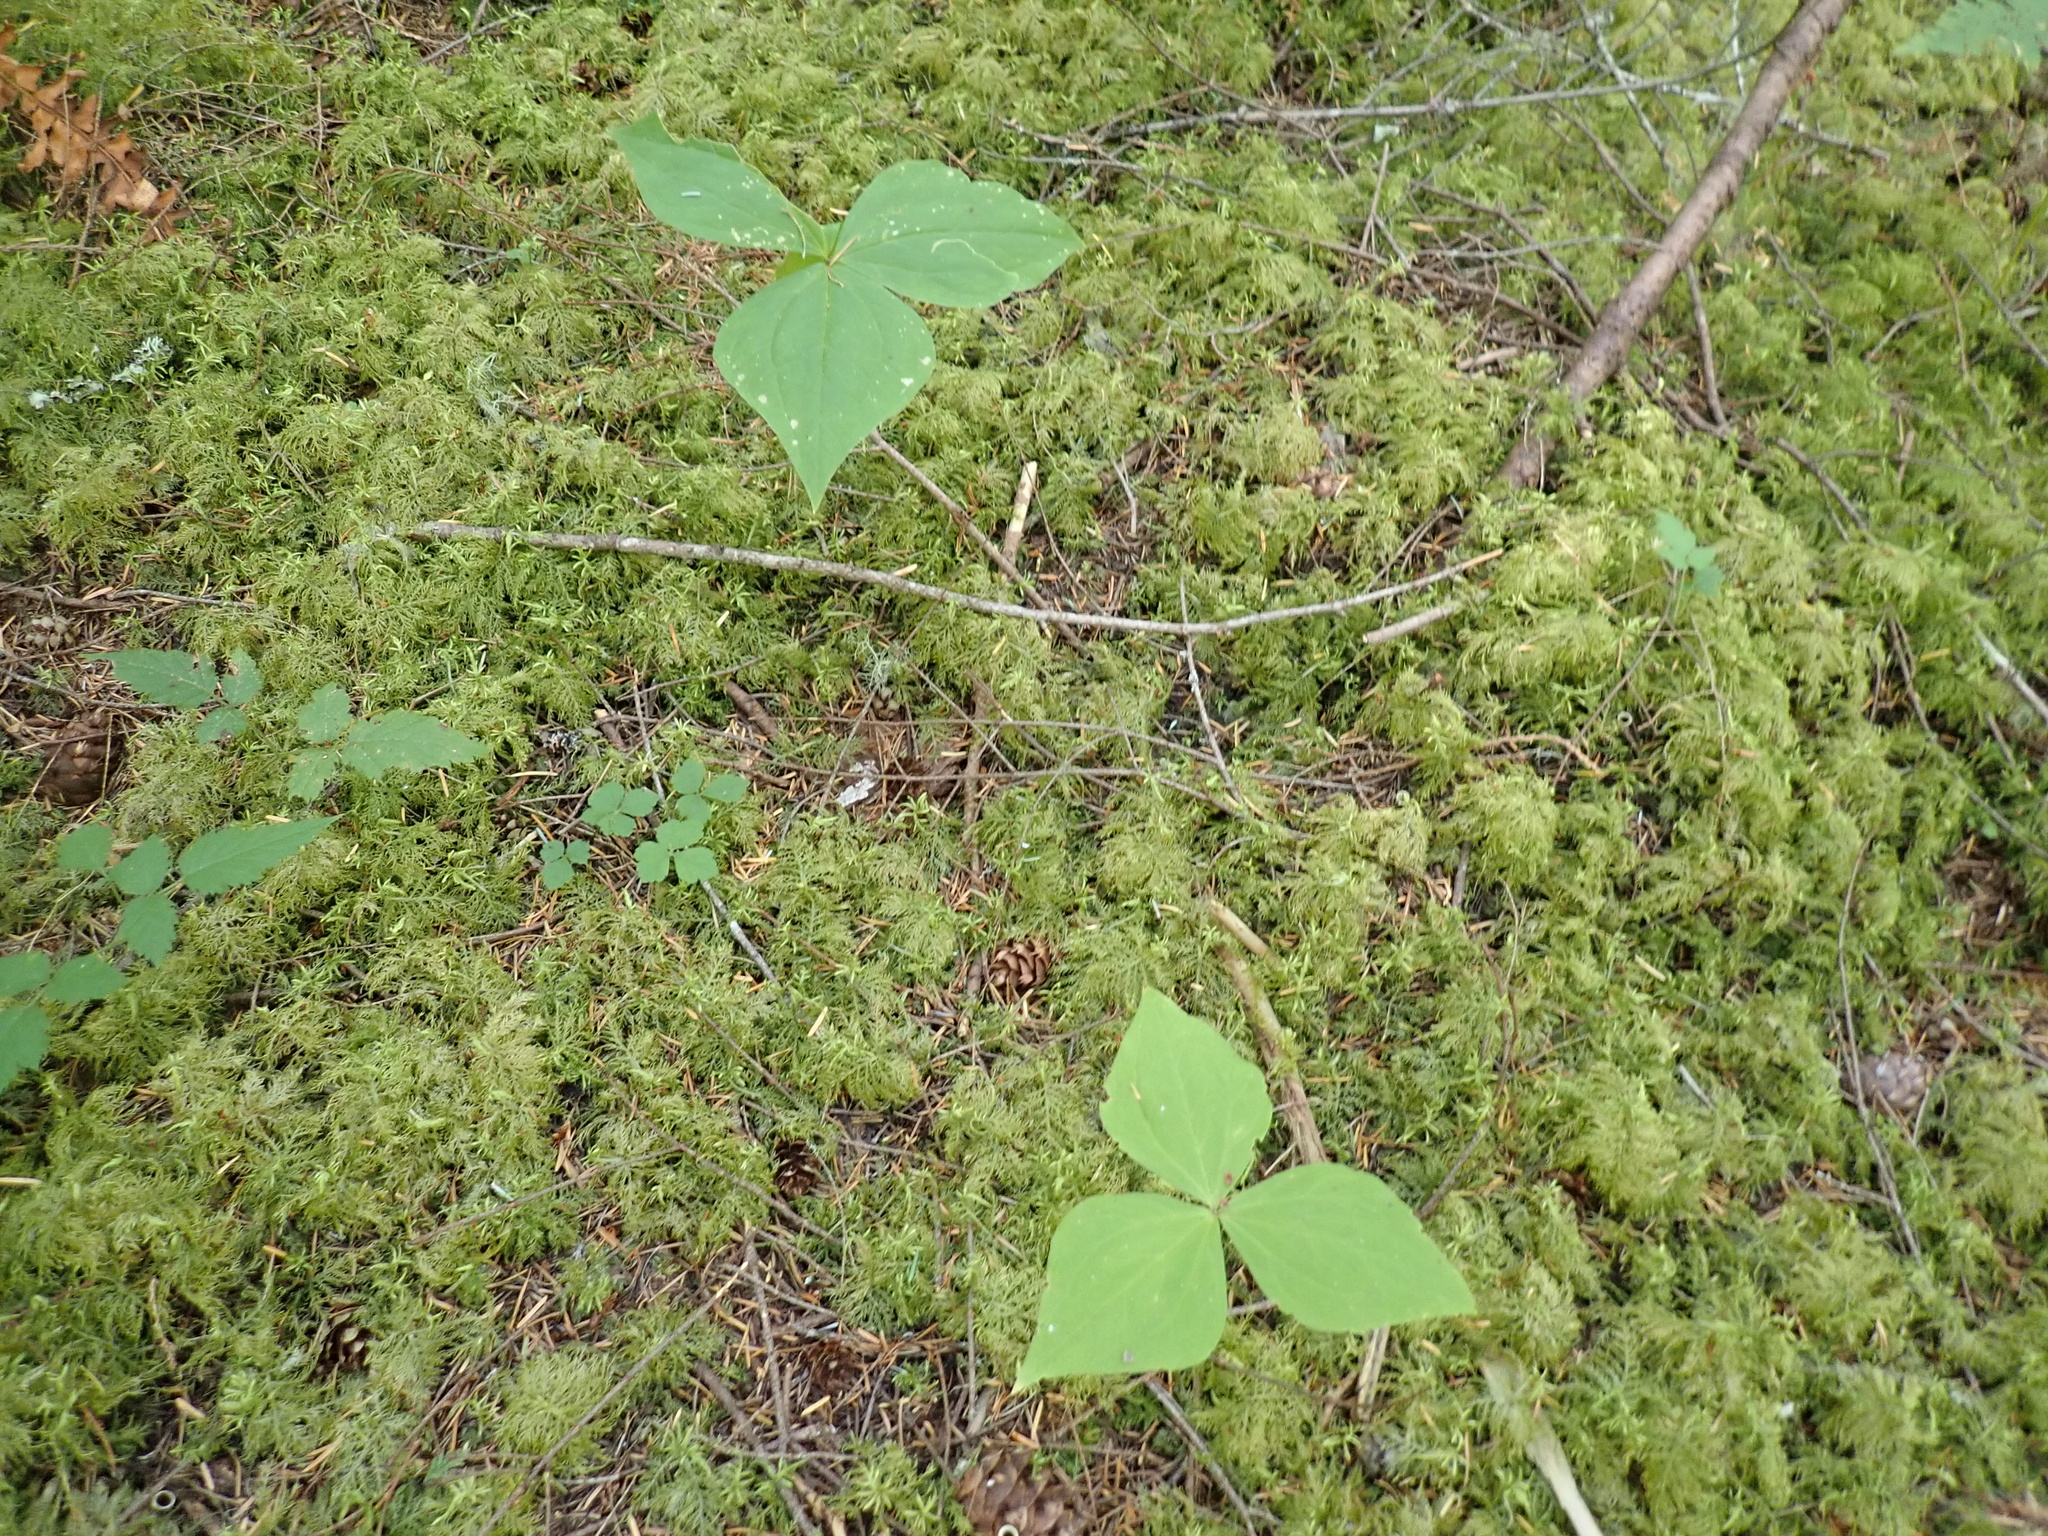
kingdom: Plantae
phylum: Tracheophyta
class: Liliopsida
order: Liliales
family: Melanthiaceae
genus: Trillium
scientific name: Trillium ovatum
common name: Pacific trillium
